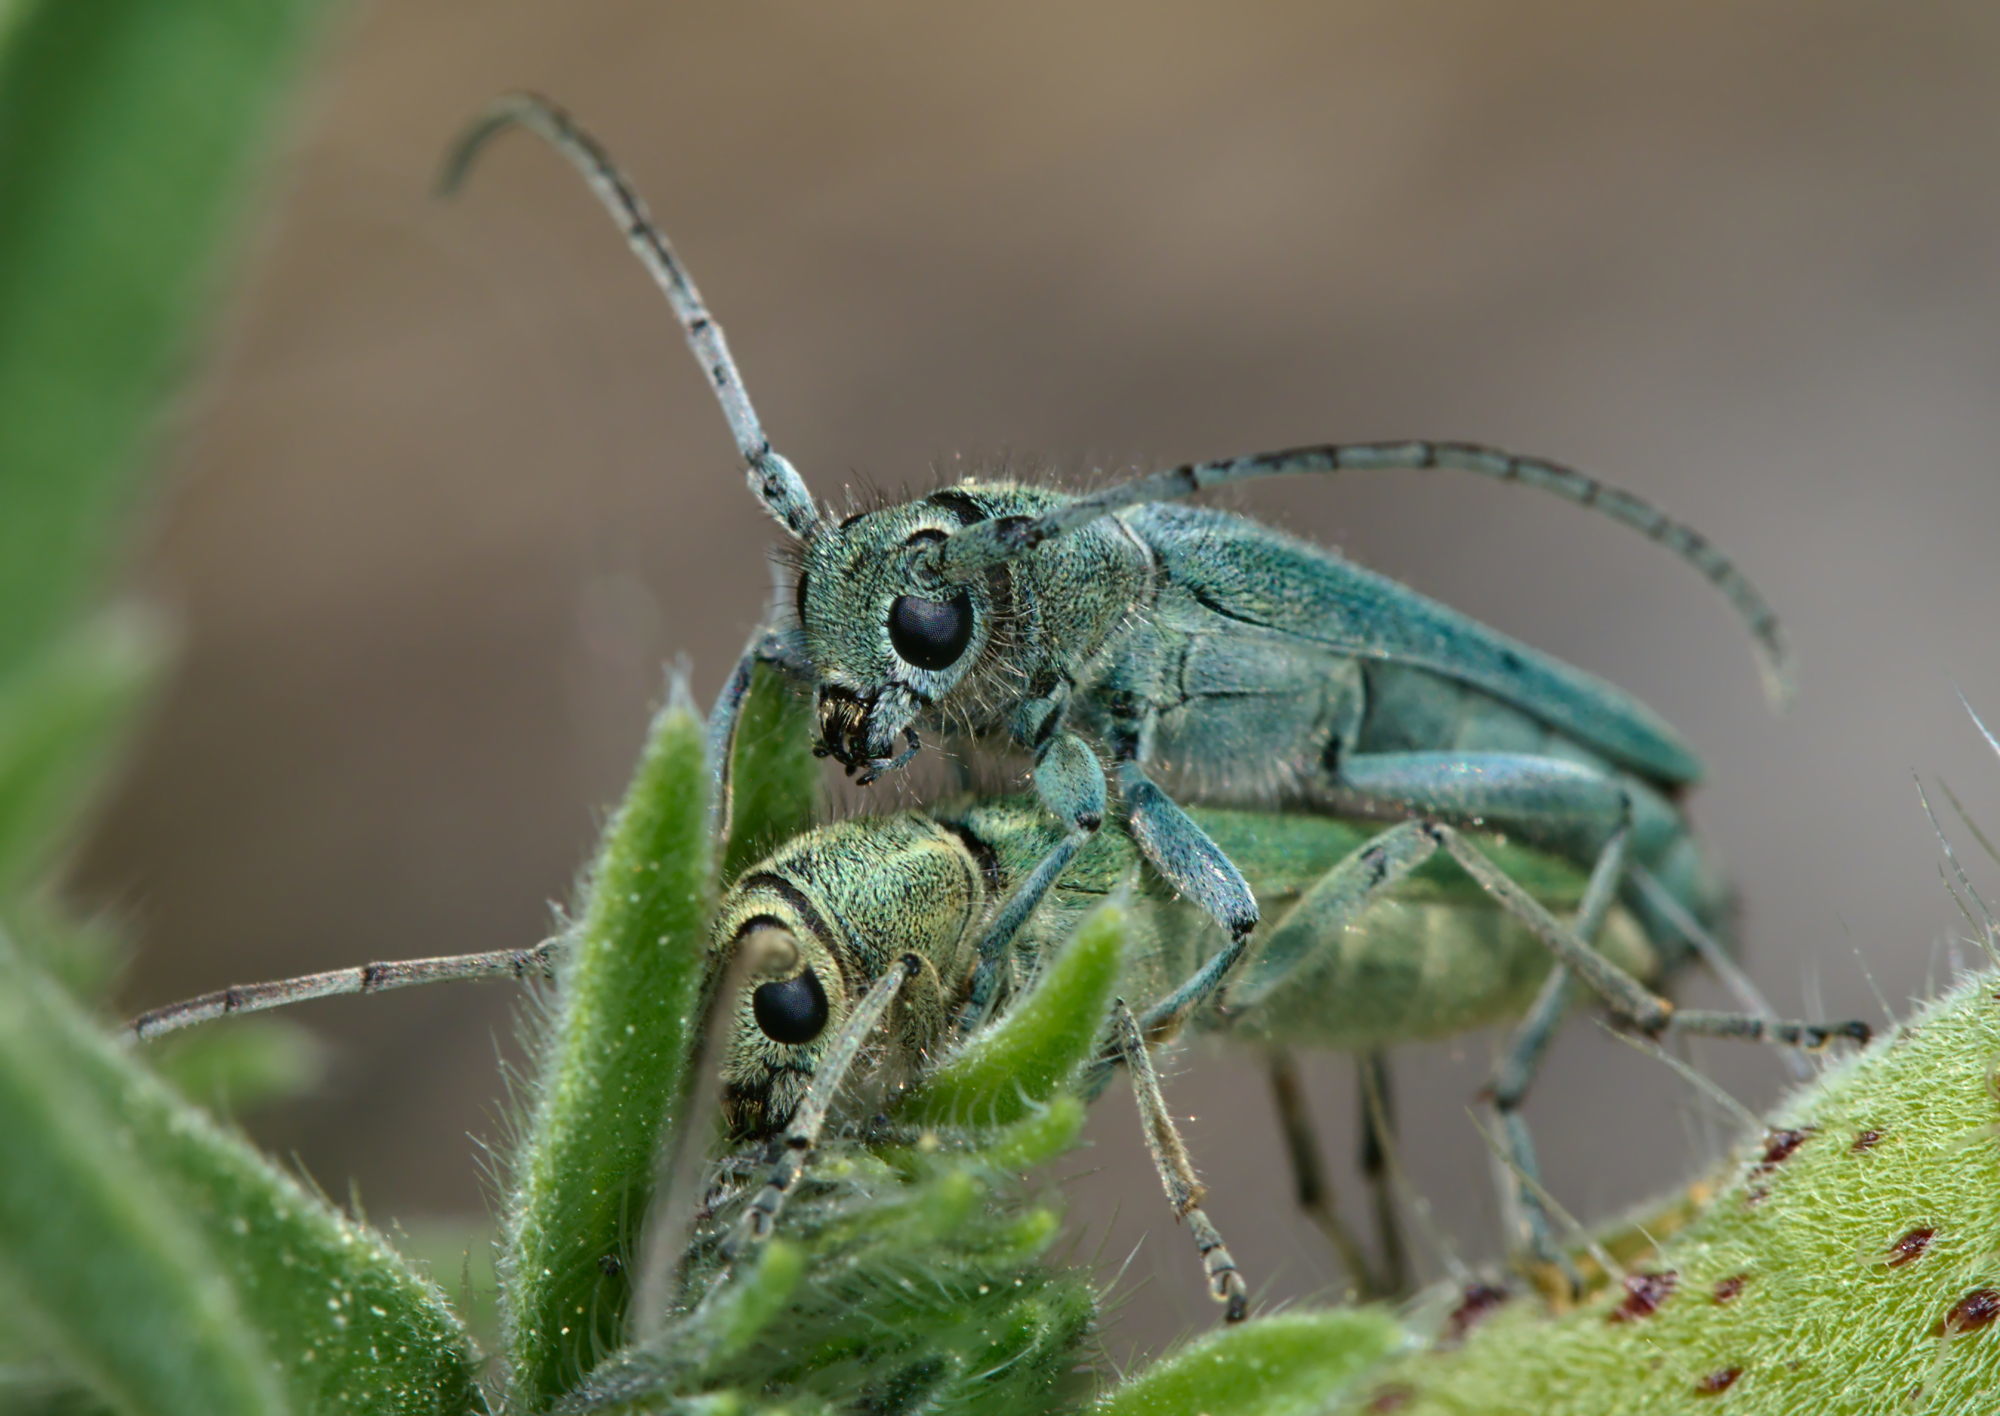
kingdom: Animalia
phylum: Arthropoda
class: Insecta
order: Coleoptera
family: Cerambycidae
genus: Phytoecia
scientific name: Phytoecia coerulescens
